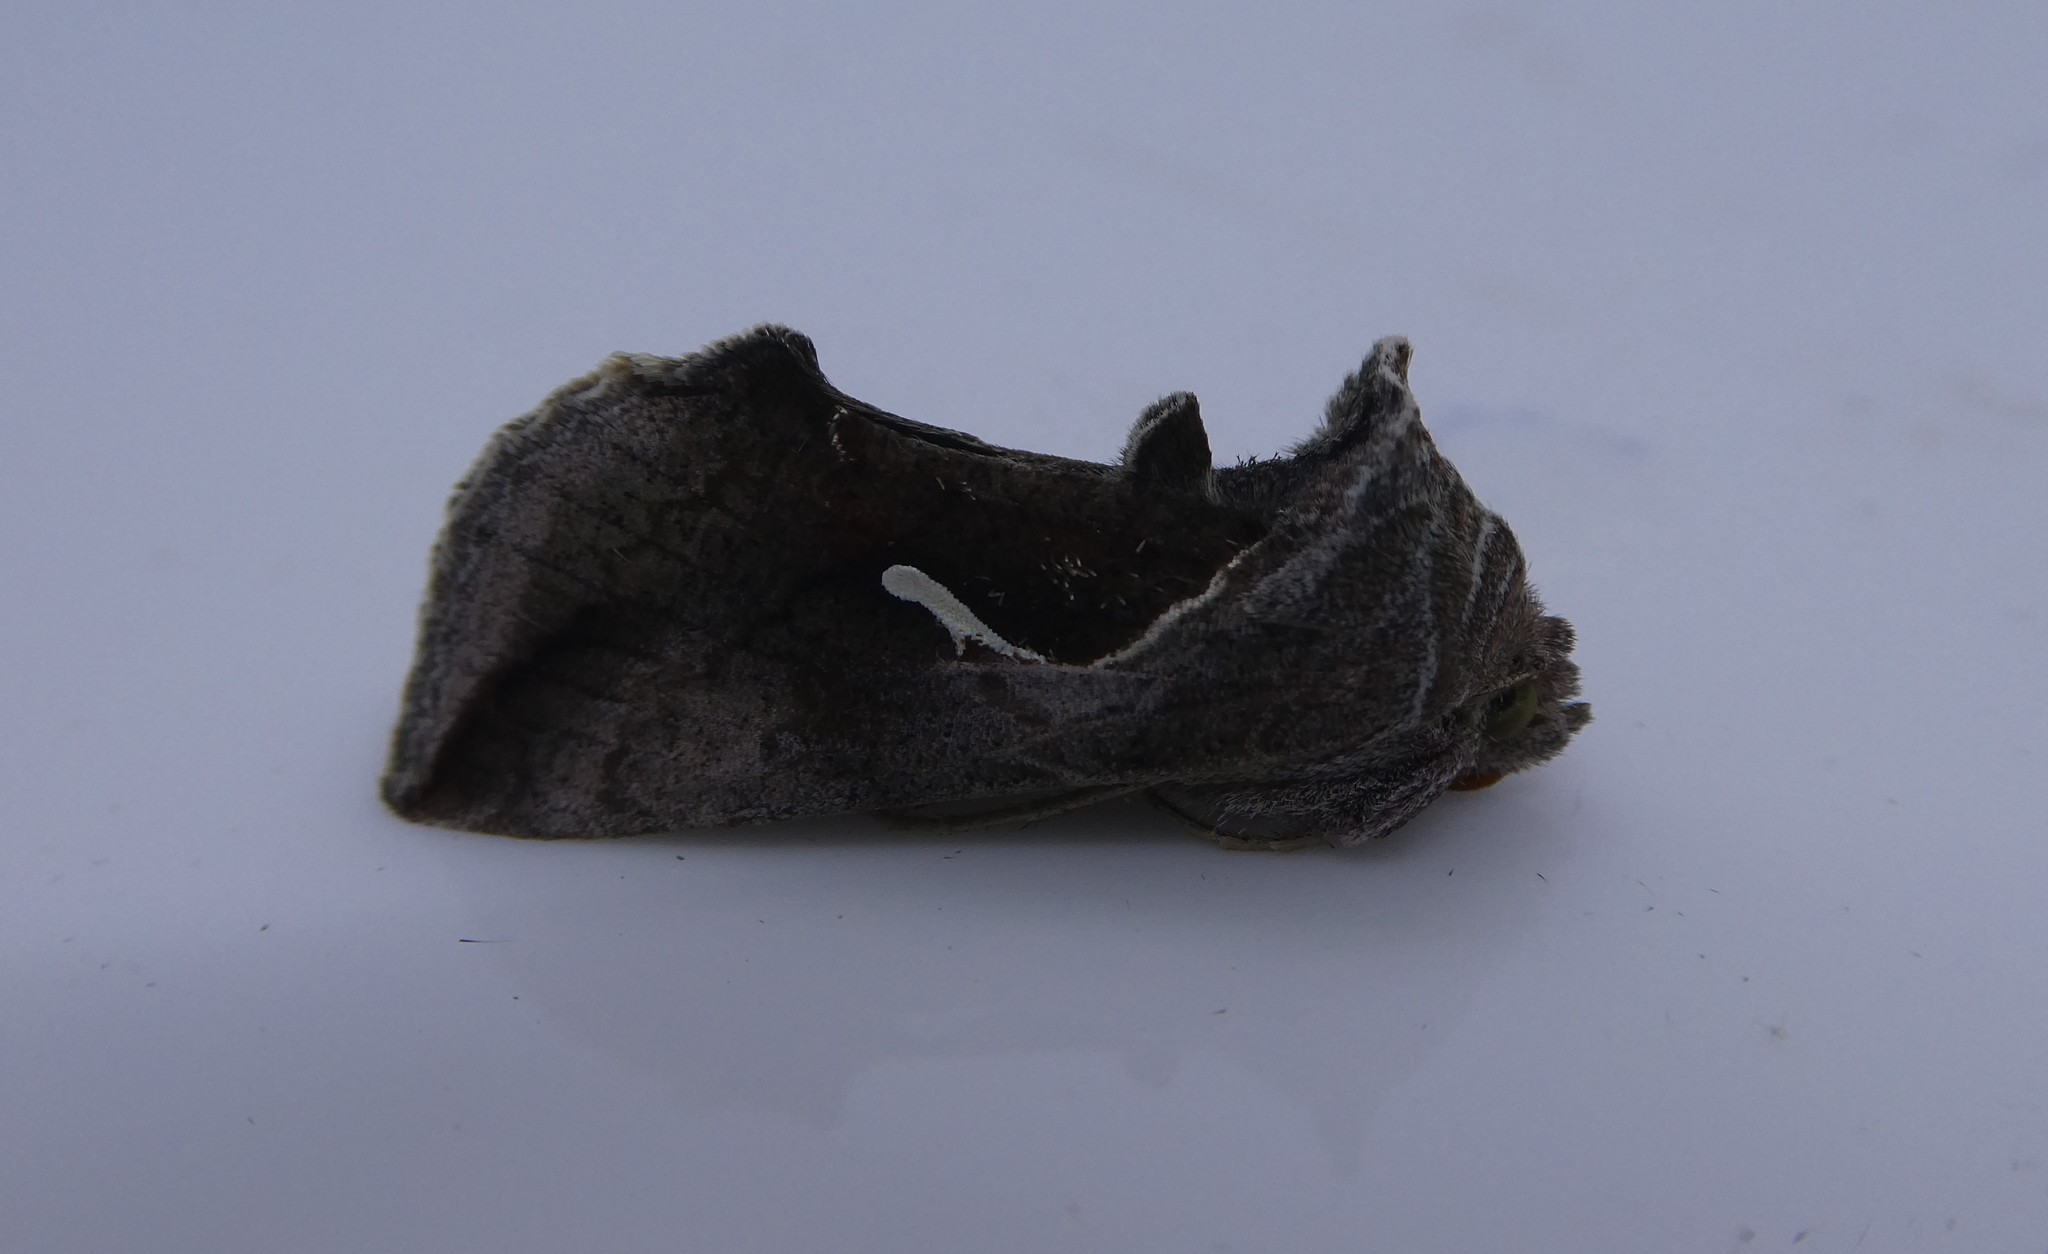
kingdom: Animalia
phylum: Arthropoda
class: Insecta
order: Lepidoptera
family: Noctuidae
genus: Anagrapha
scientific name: Anagrapha falcifera
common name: Celery looper
